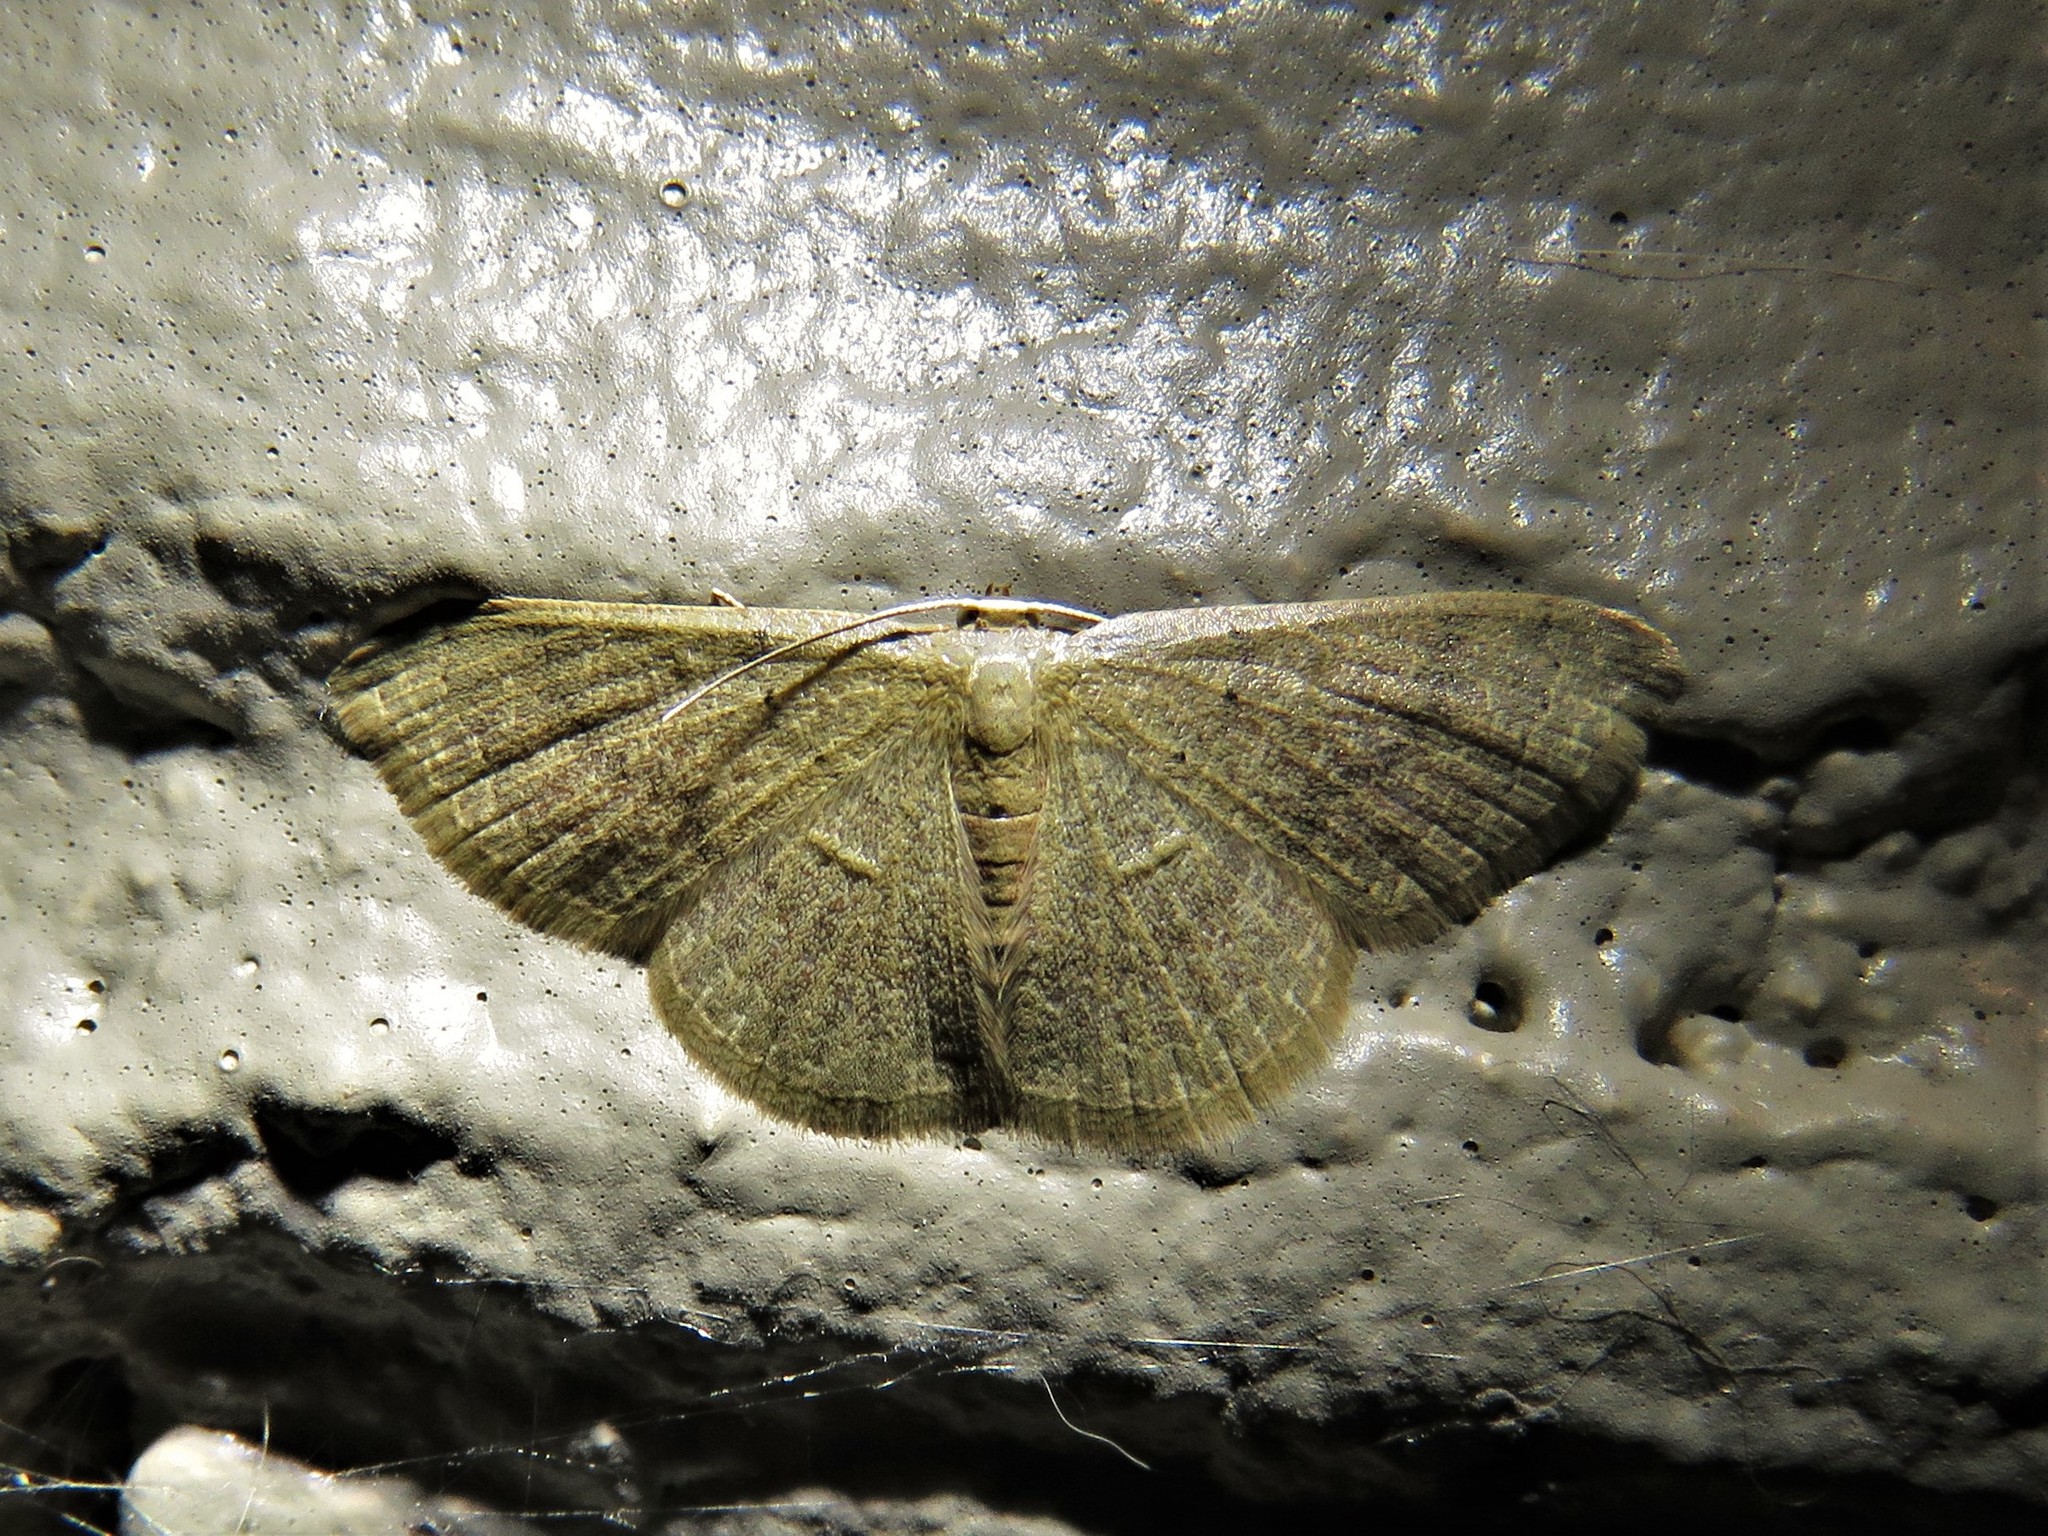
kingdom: Animalia
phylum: Arthropoda
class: Insecta
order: Lepidoptera
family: Geometridae
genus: Pleuroprucha
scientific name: Pleuroprucha insulsaria
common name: Common tan wave
